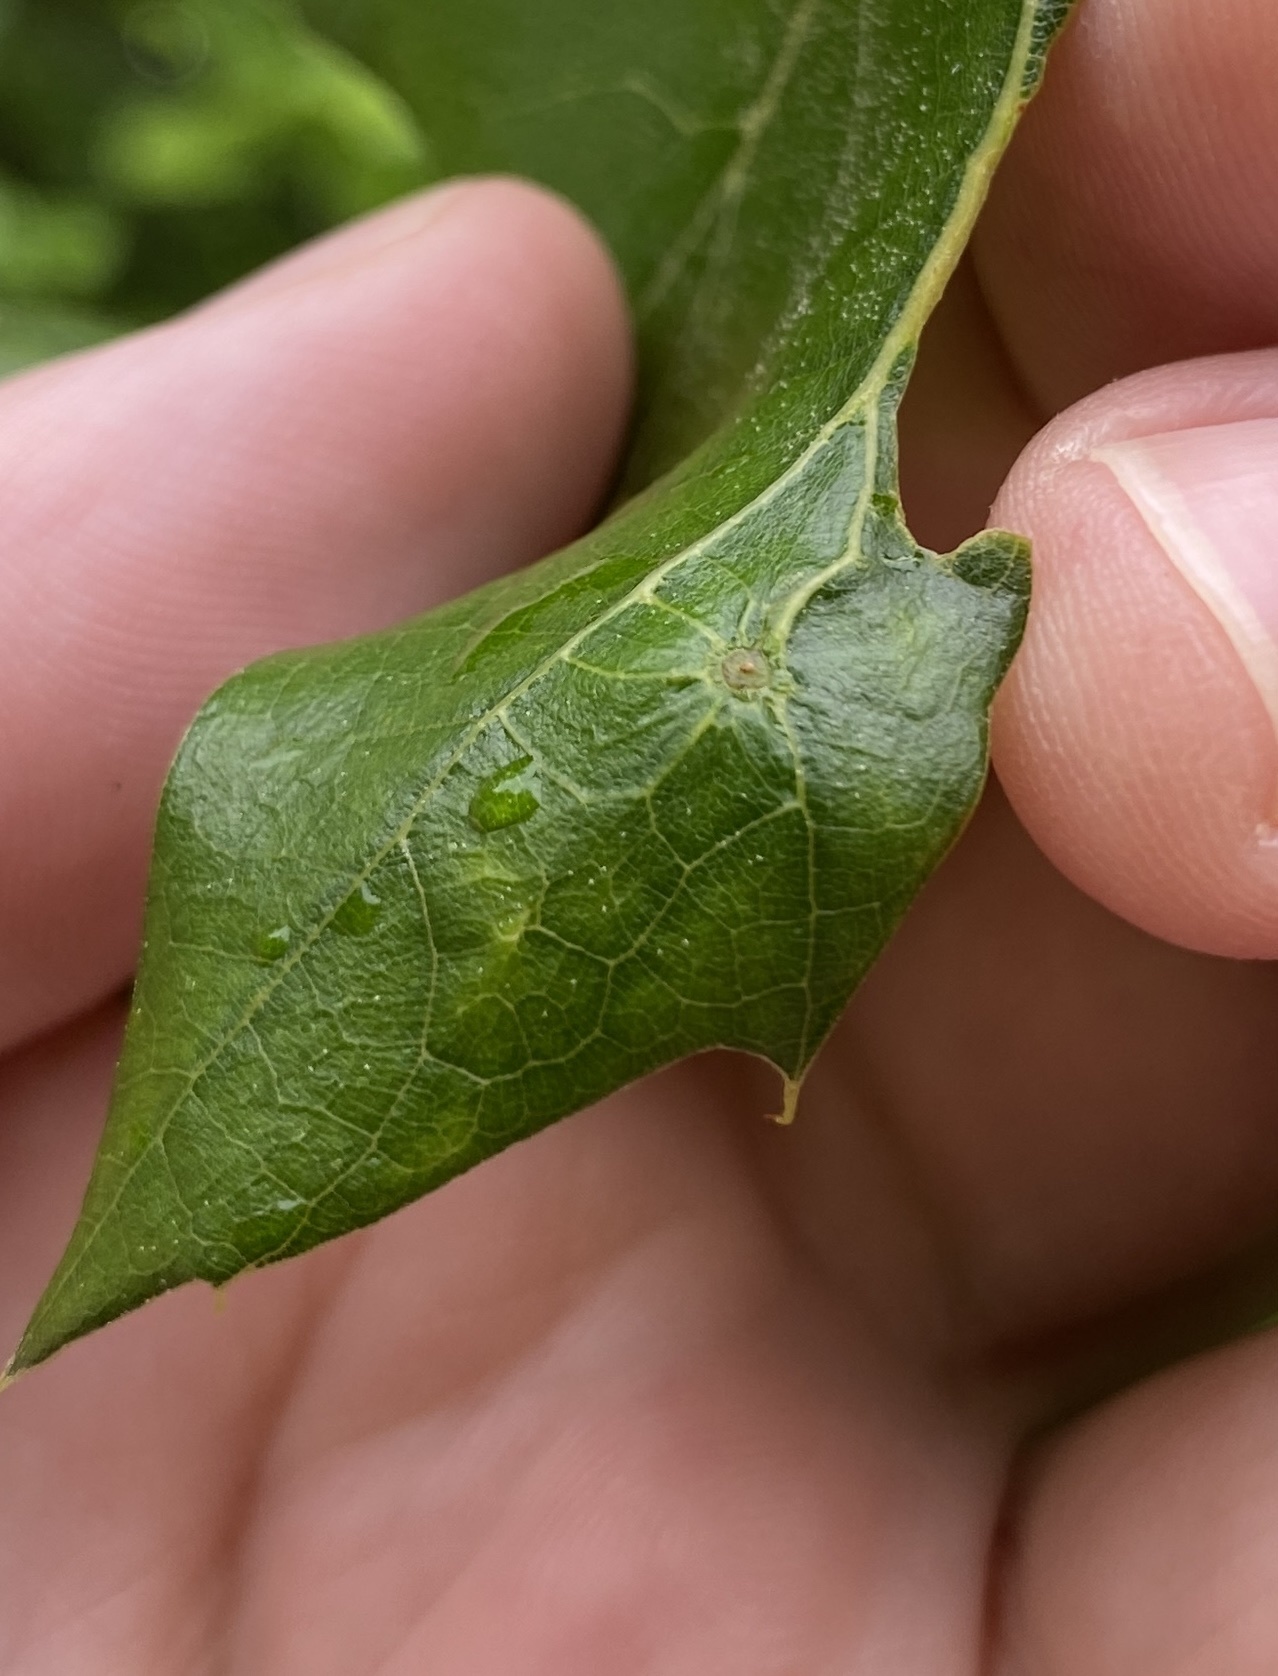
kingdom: Animalia
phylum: Arthropoda
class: Insecta
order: Hymenoptera
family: Cynipidae
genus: Amphibolips
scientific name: Amphibolips
